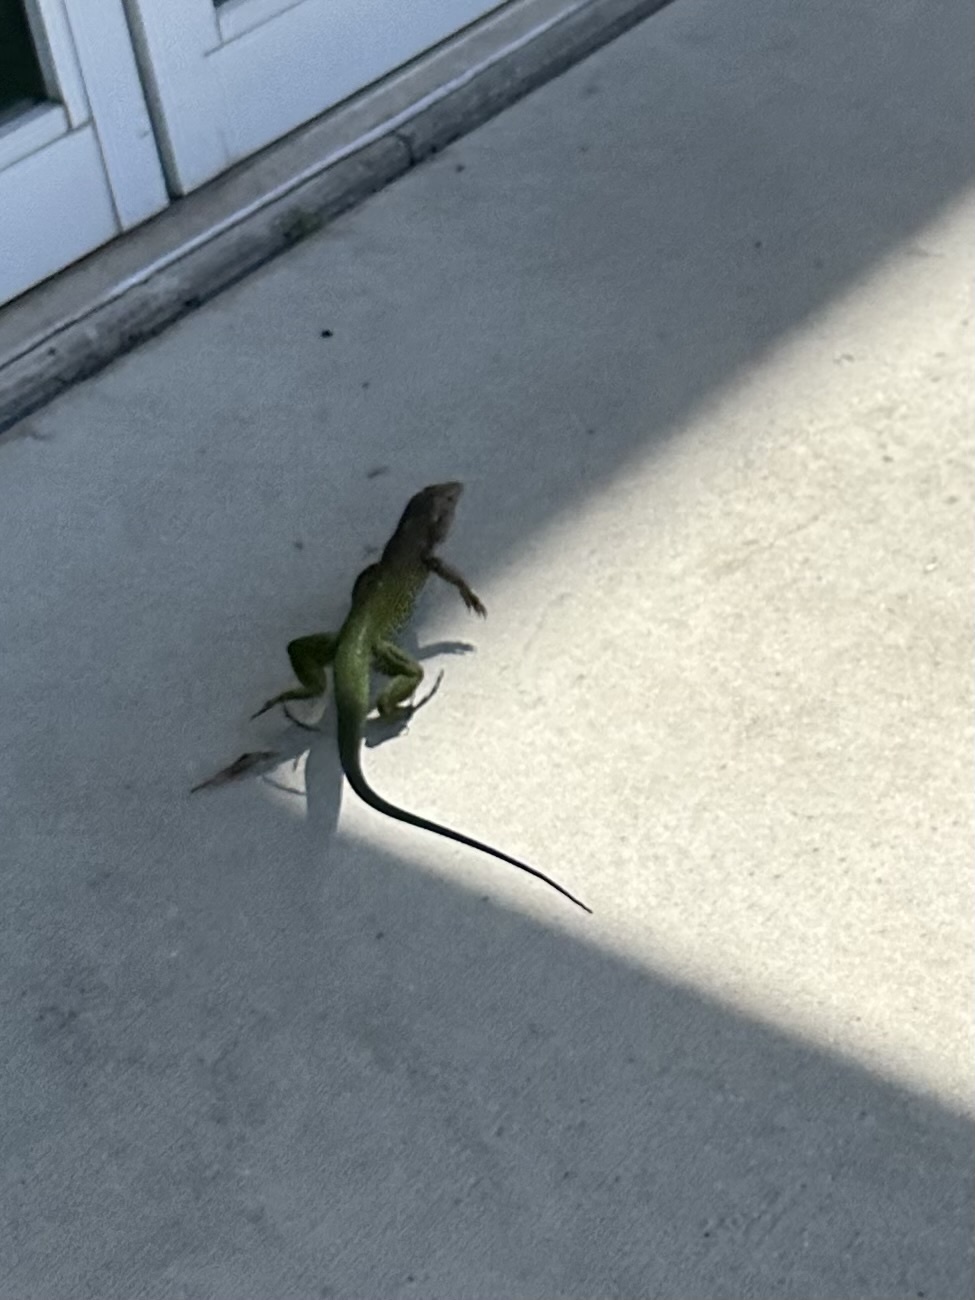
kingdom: Animalia
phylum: Chordata
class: Squamata
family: Teiidae
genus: Ameiva
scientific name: Ameiva ameiva
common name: Giant ameiva
